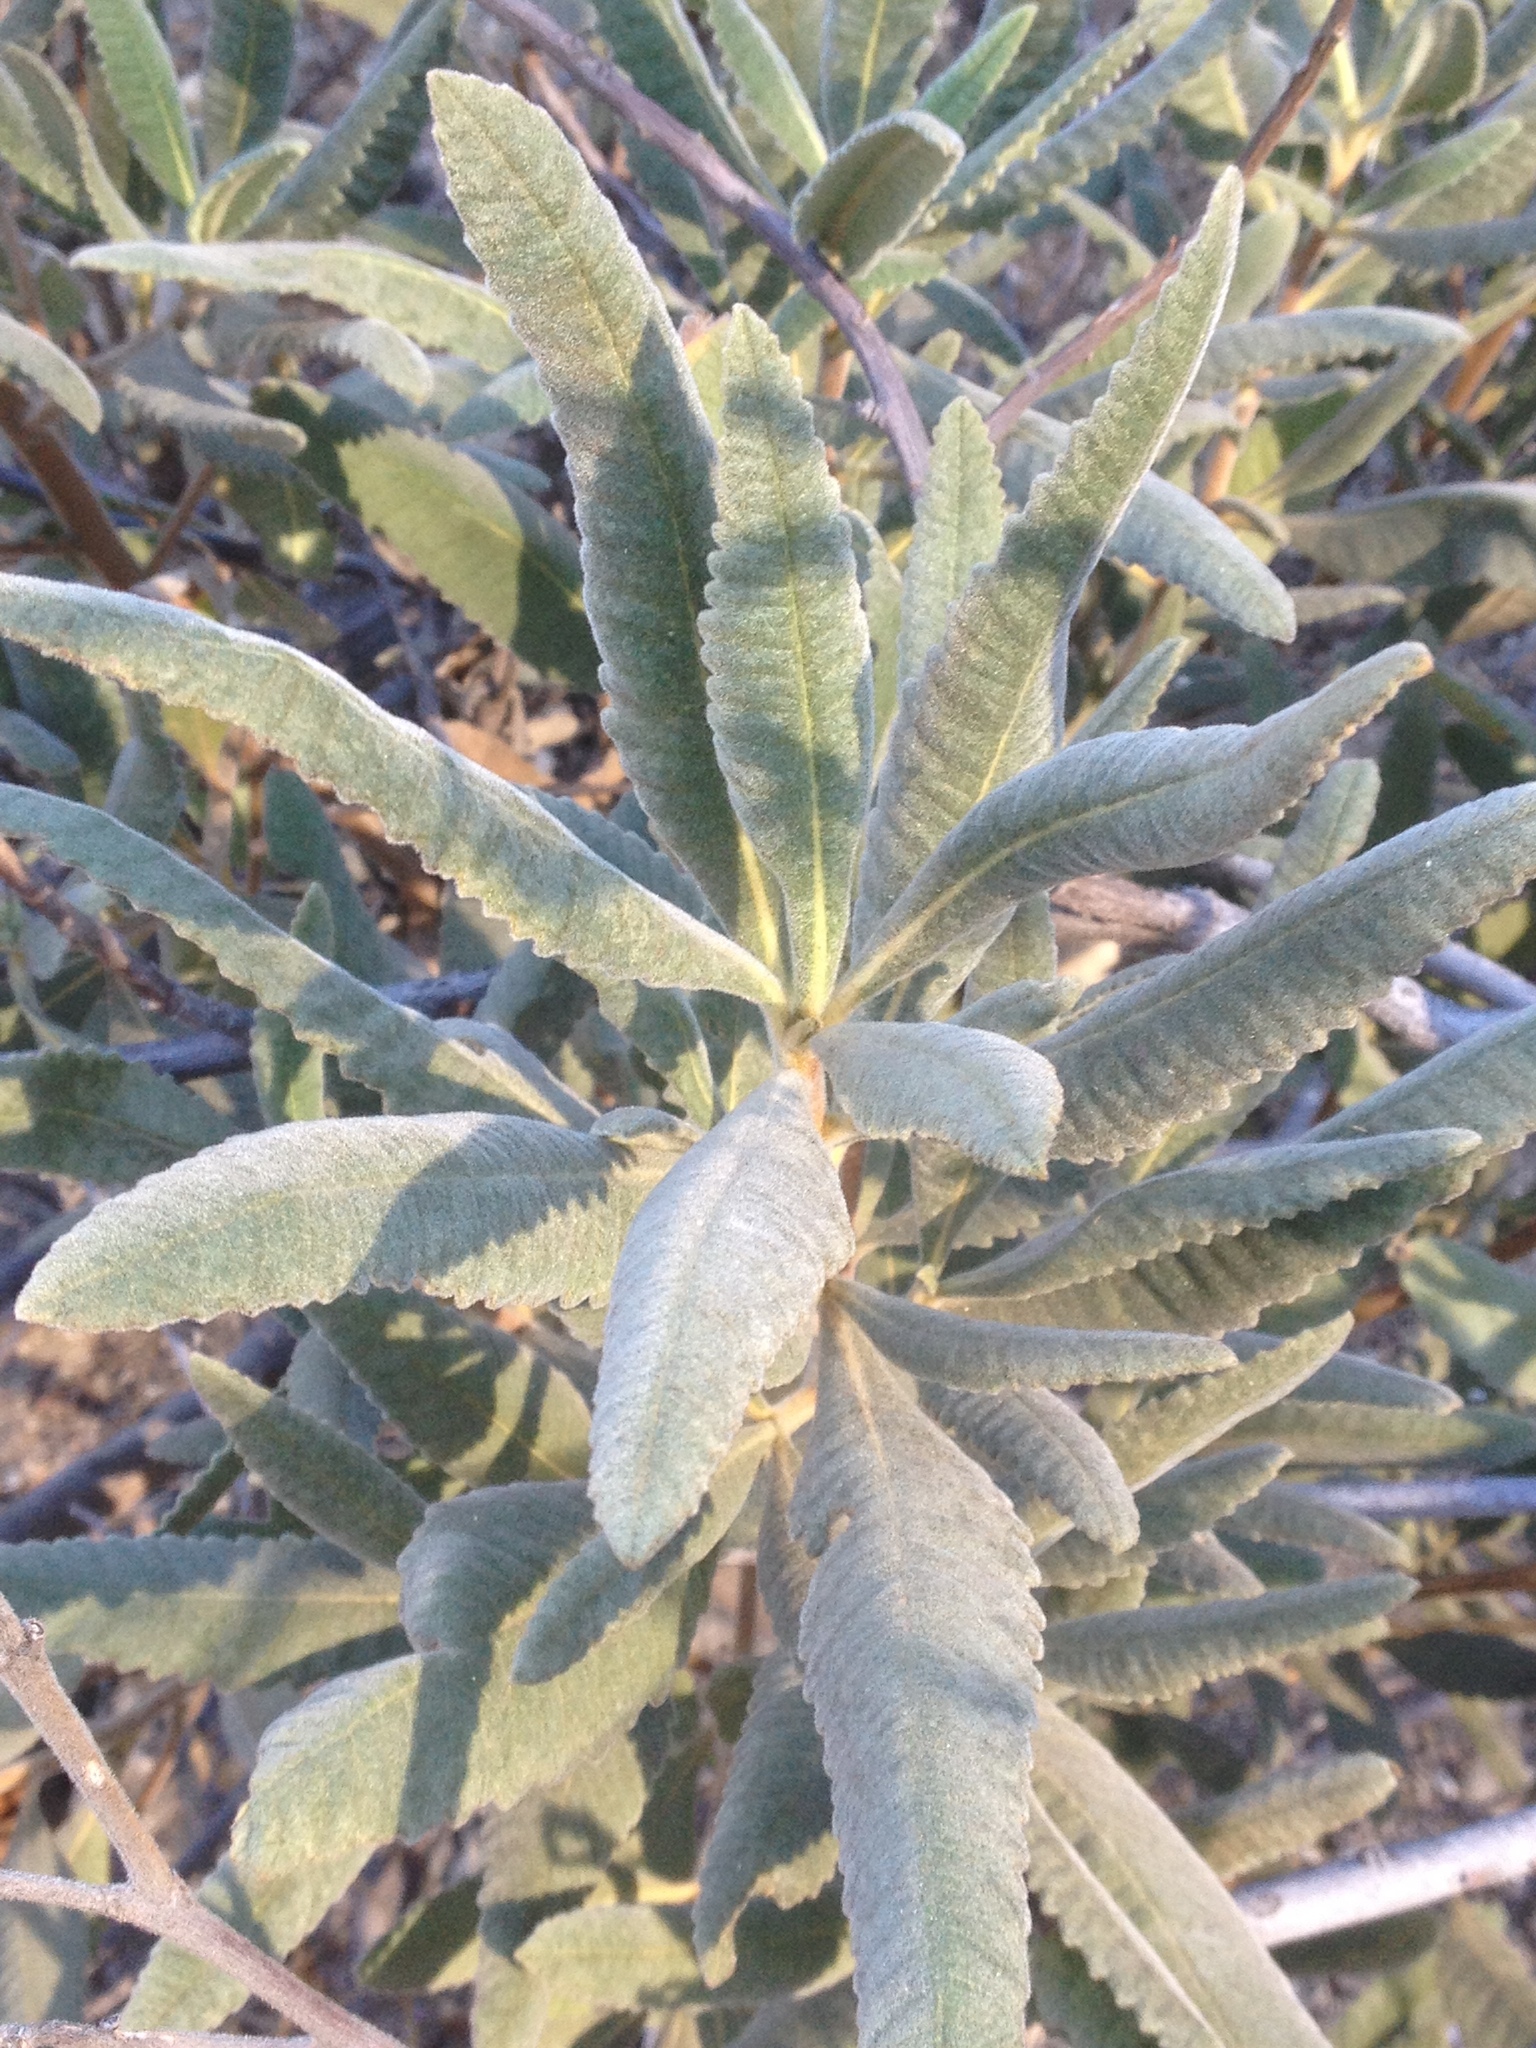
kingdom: Plantae
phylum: Tracheophyta
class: Magnoliopsida
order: Boraginales
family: Namaceae
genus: Eriodictyon
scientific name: Eriodictyon crassifolium
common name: Thick-leaf yerba-santa
